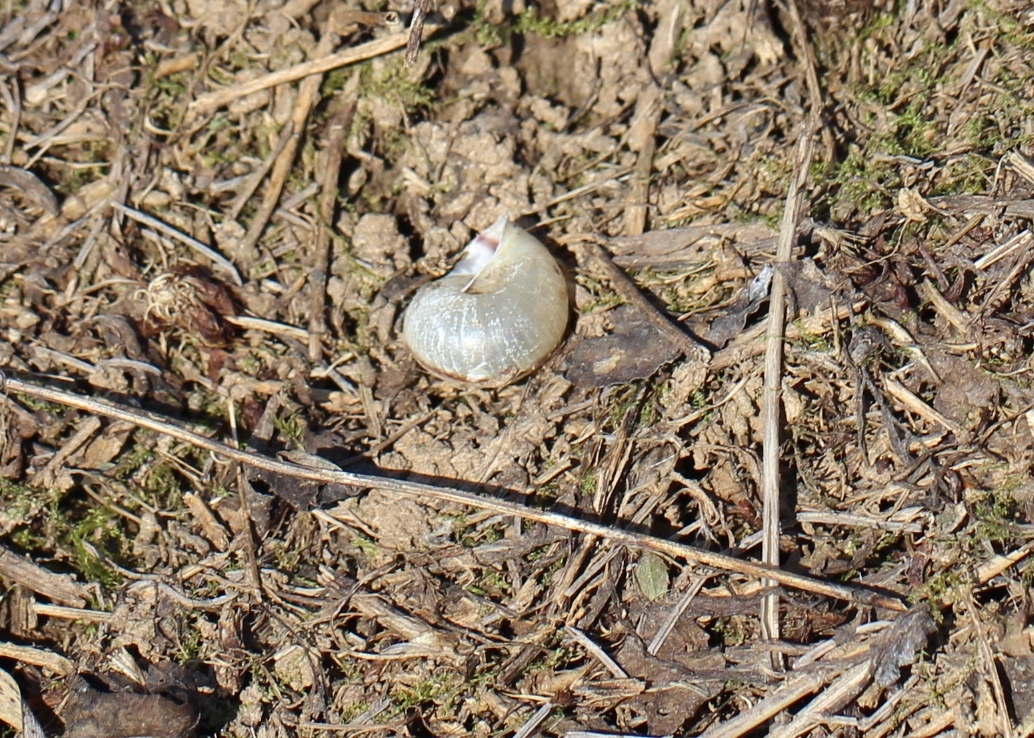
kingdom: Animalia
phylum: Mollusca
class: Gastropoda
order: Stylommatophora
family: Camaenidae
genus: Fruticicola
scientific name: Fruticicola fruticum
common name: Bush snail
